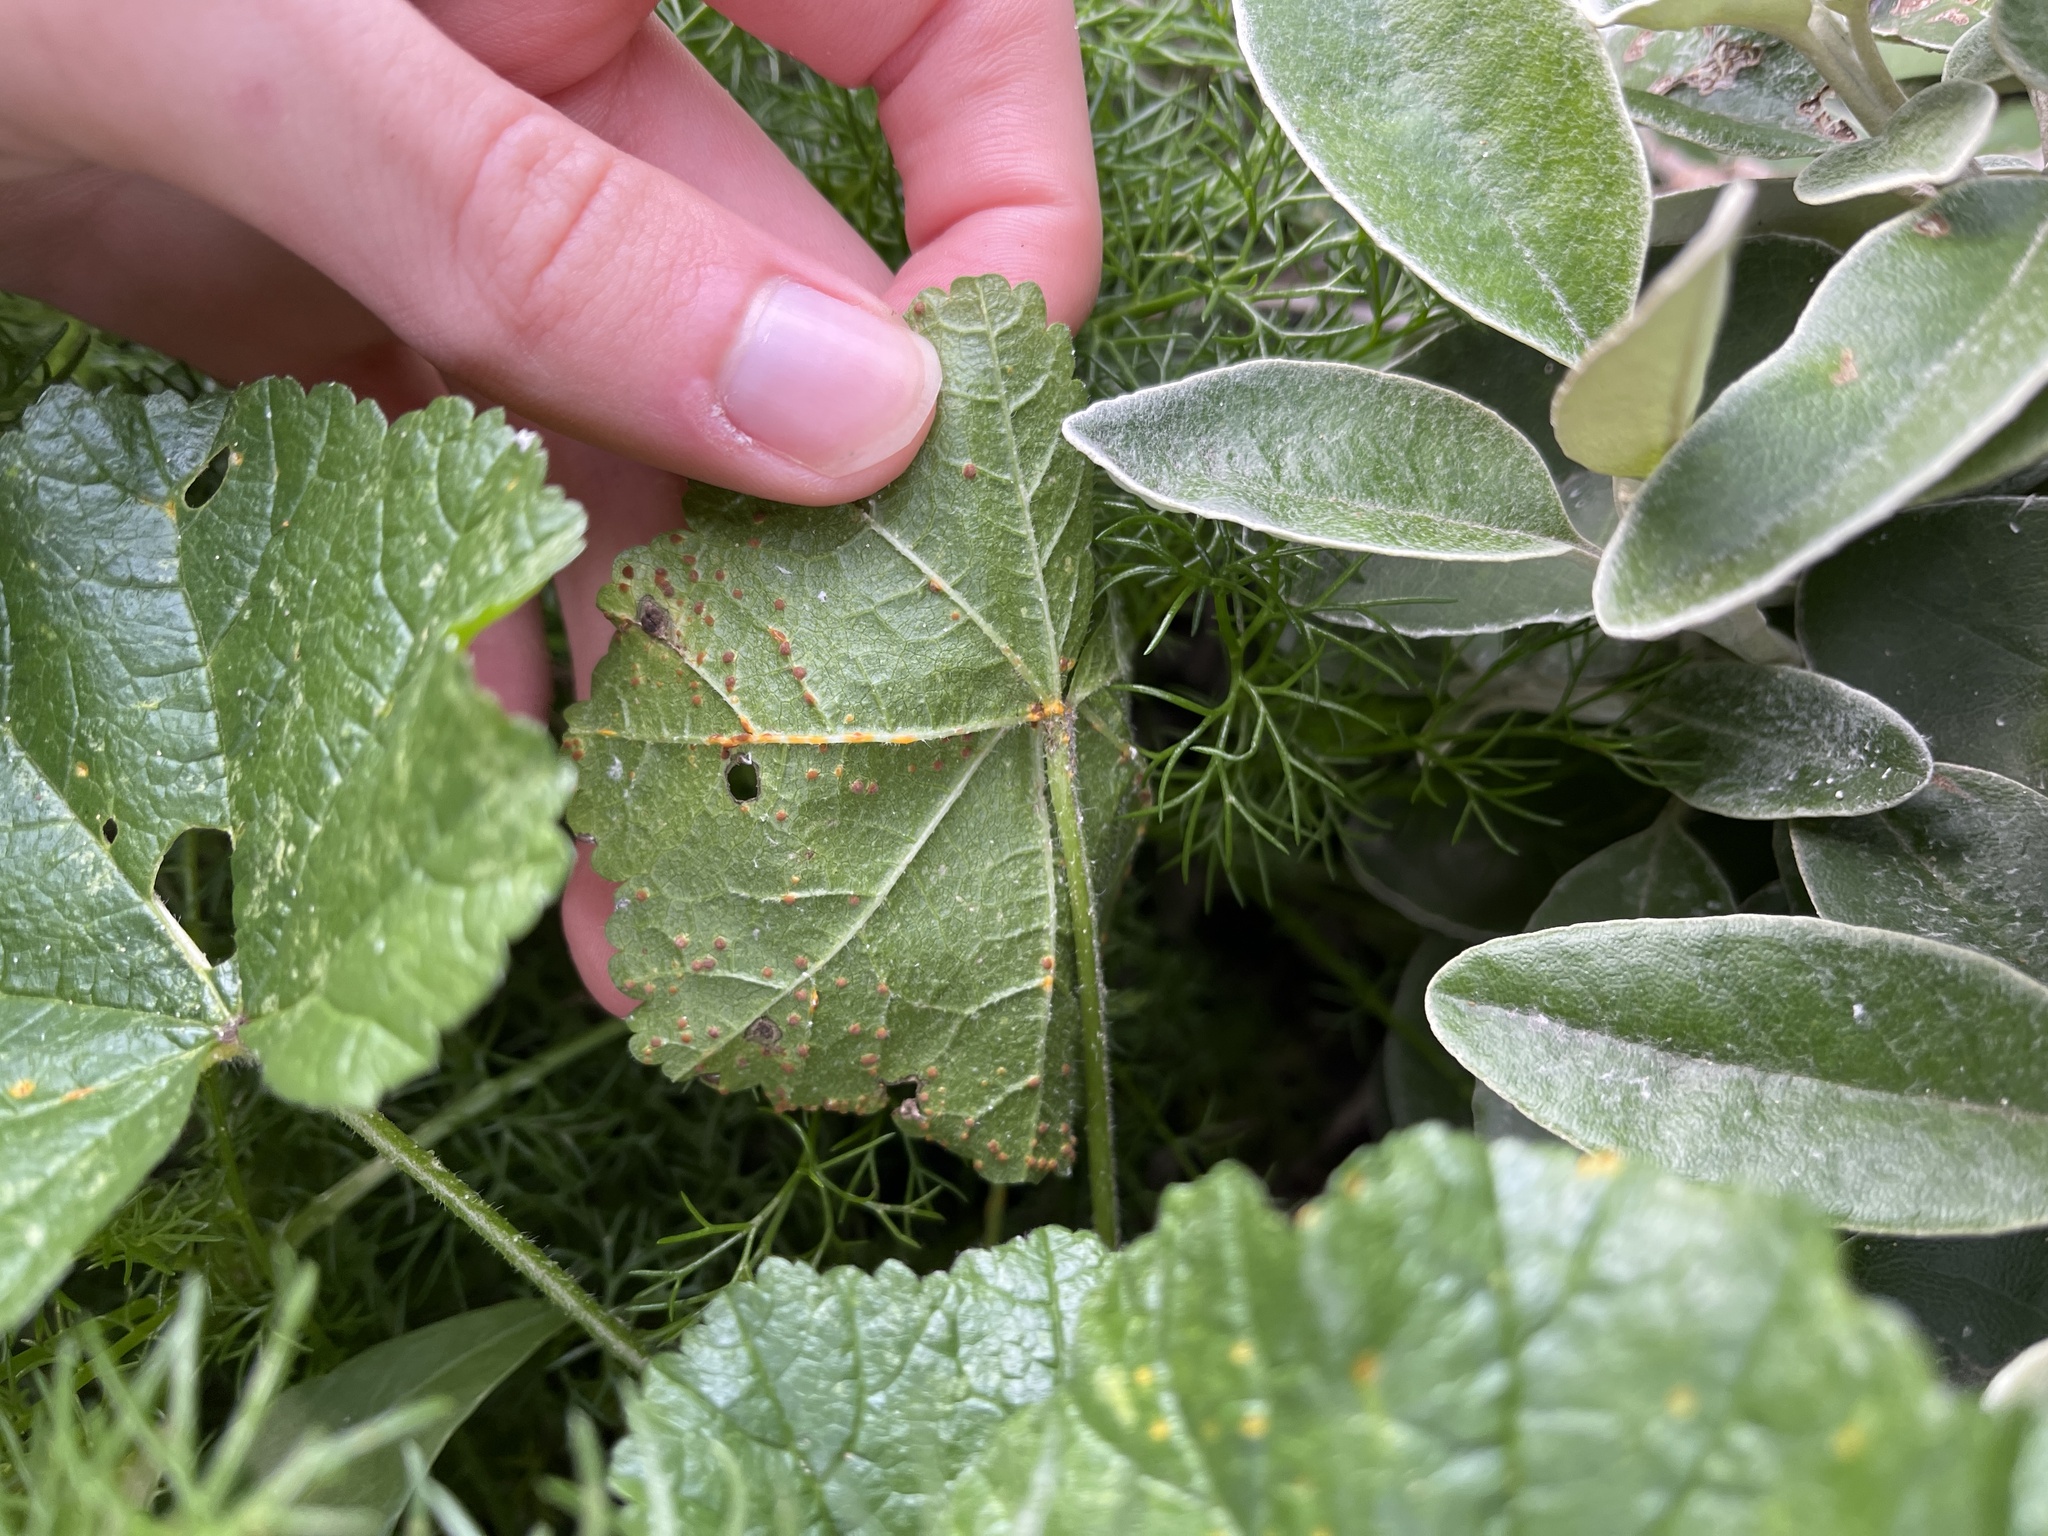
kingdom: Fungi
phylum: Basidiomycota
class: Pucciniomycetes
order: Pucciniales
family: Pucciniaceae
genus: Puccinia
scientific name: Puccinia malvacearum
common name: Hollyhock rust
